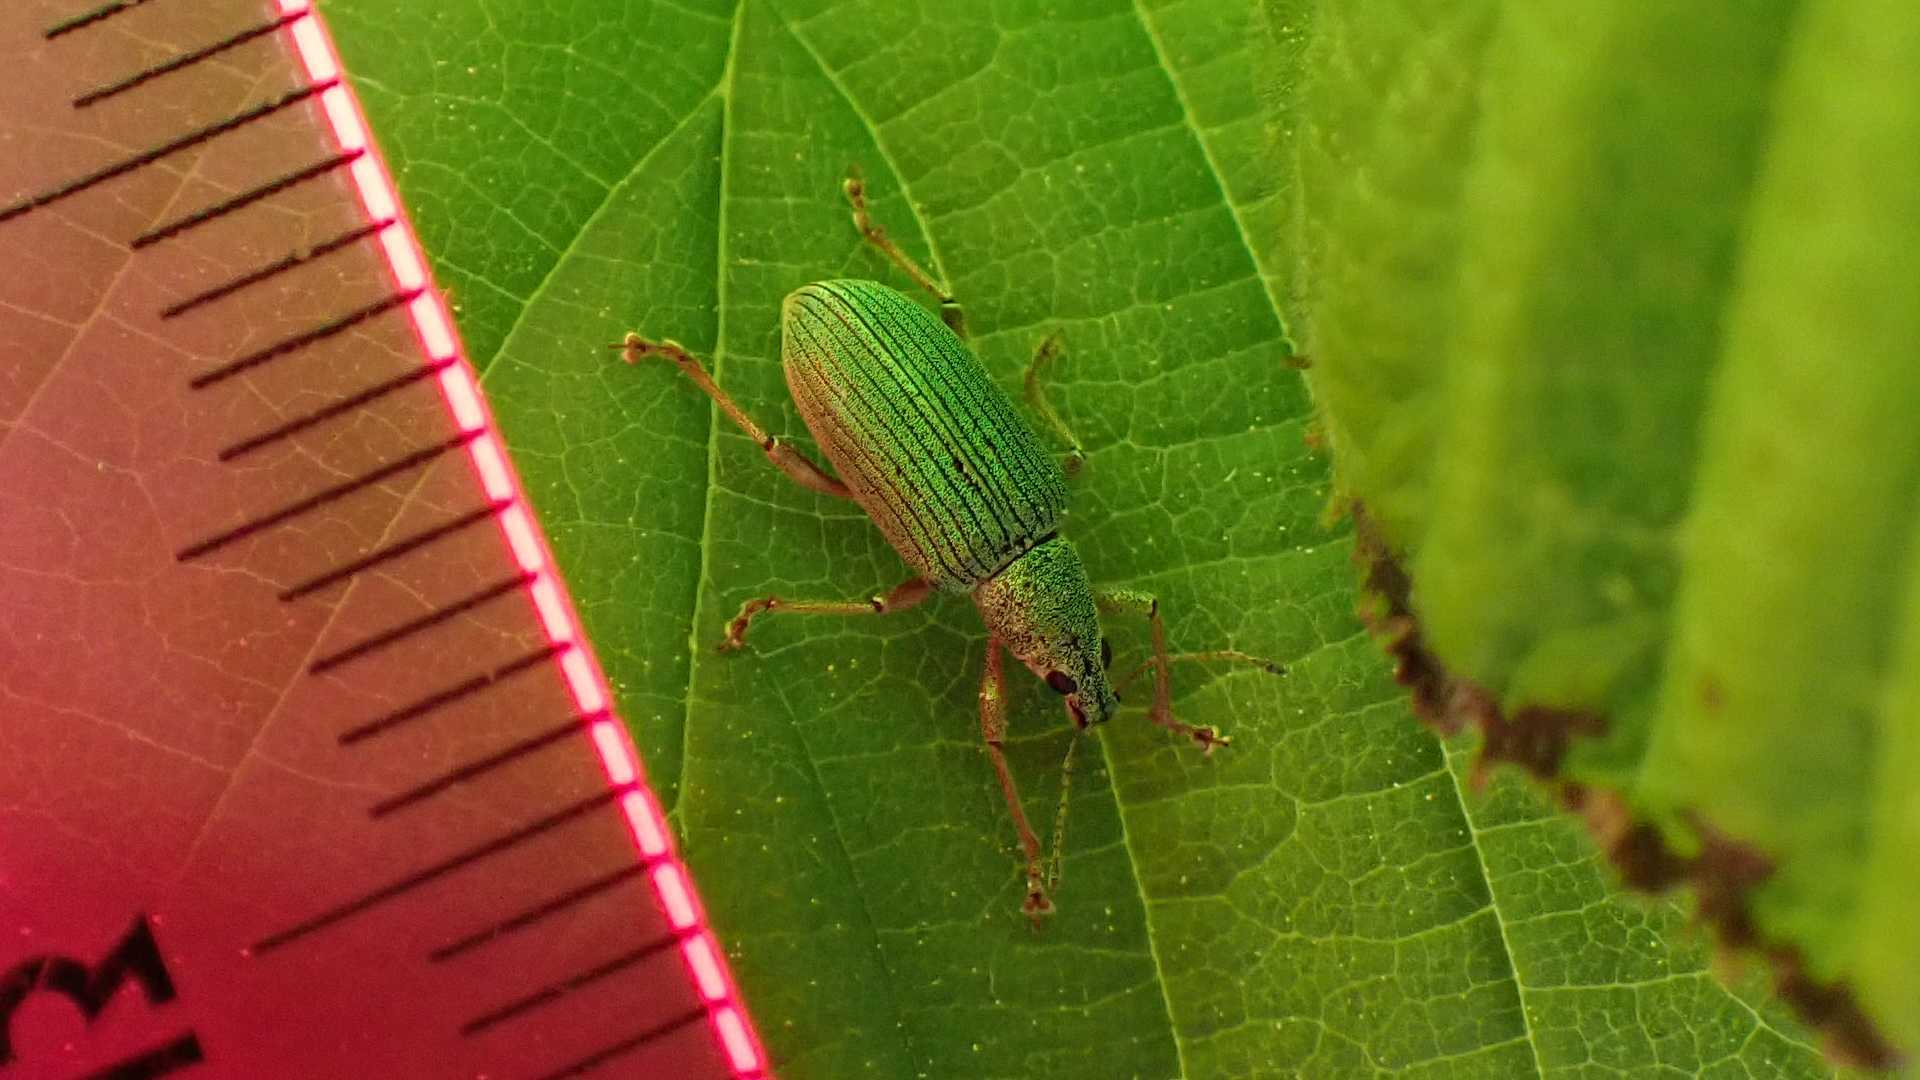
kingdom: Animalia
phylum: Arthropoda
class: Insecta
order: Coleoptera
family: Curculionidae
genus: Polydrusus
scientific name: Polydrusus formosus
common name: Weevil
